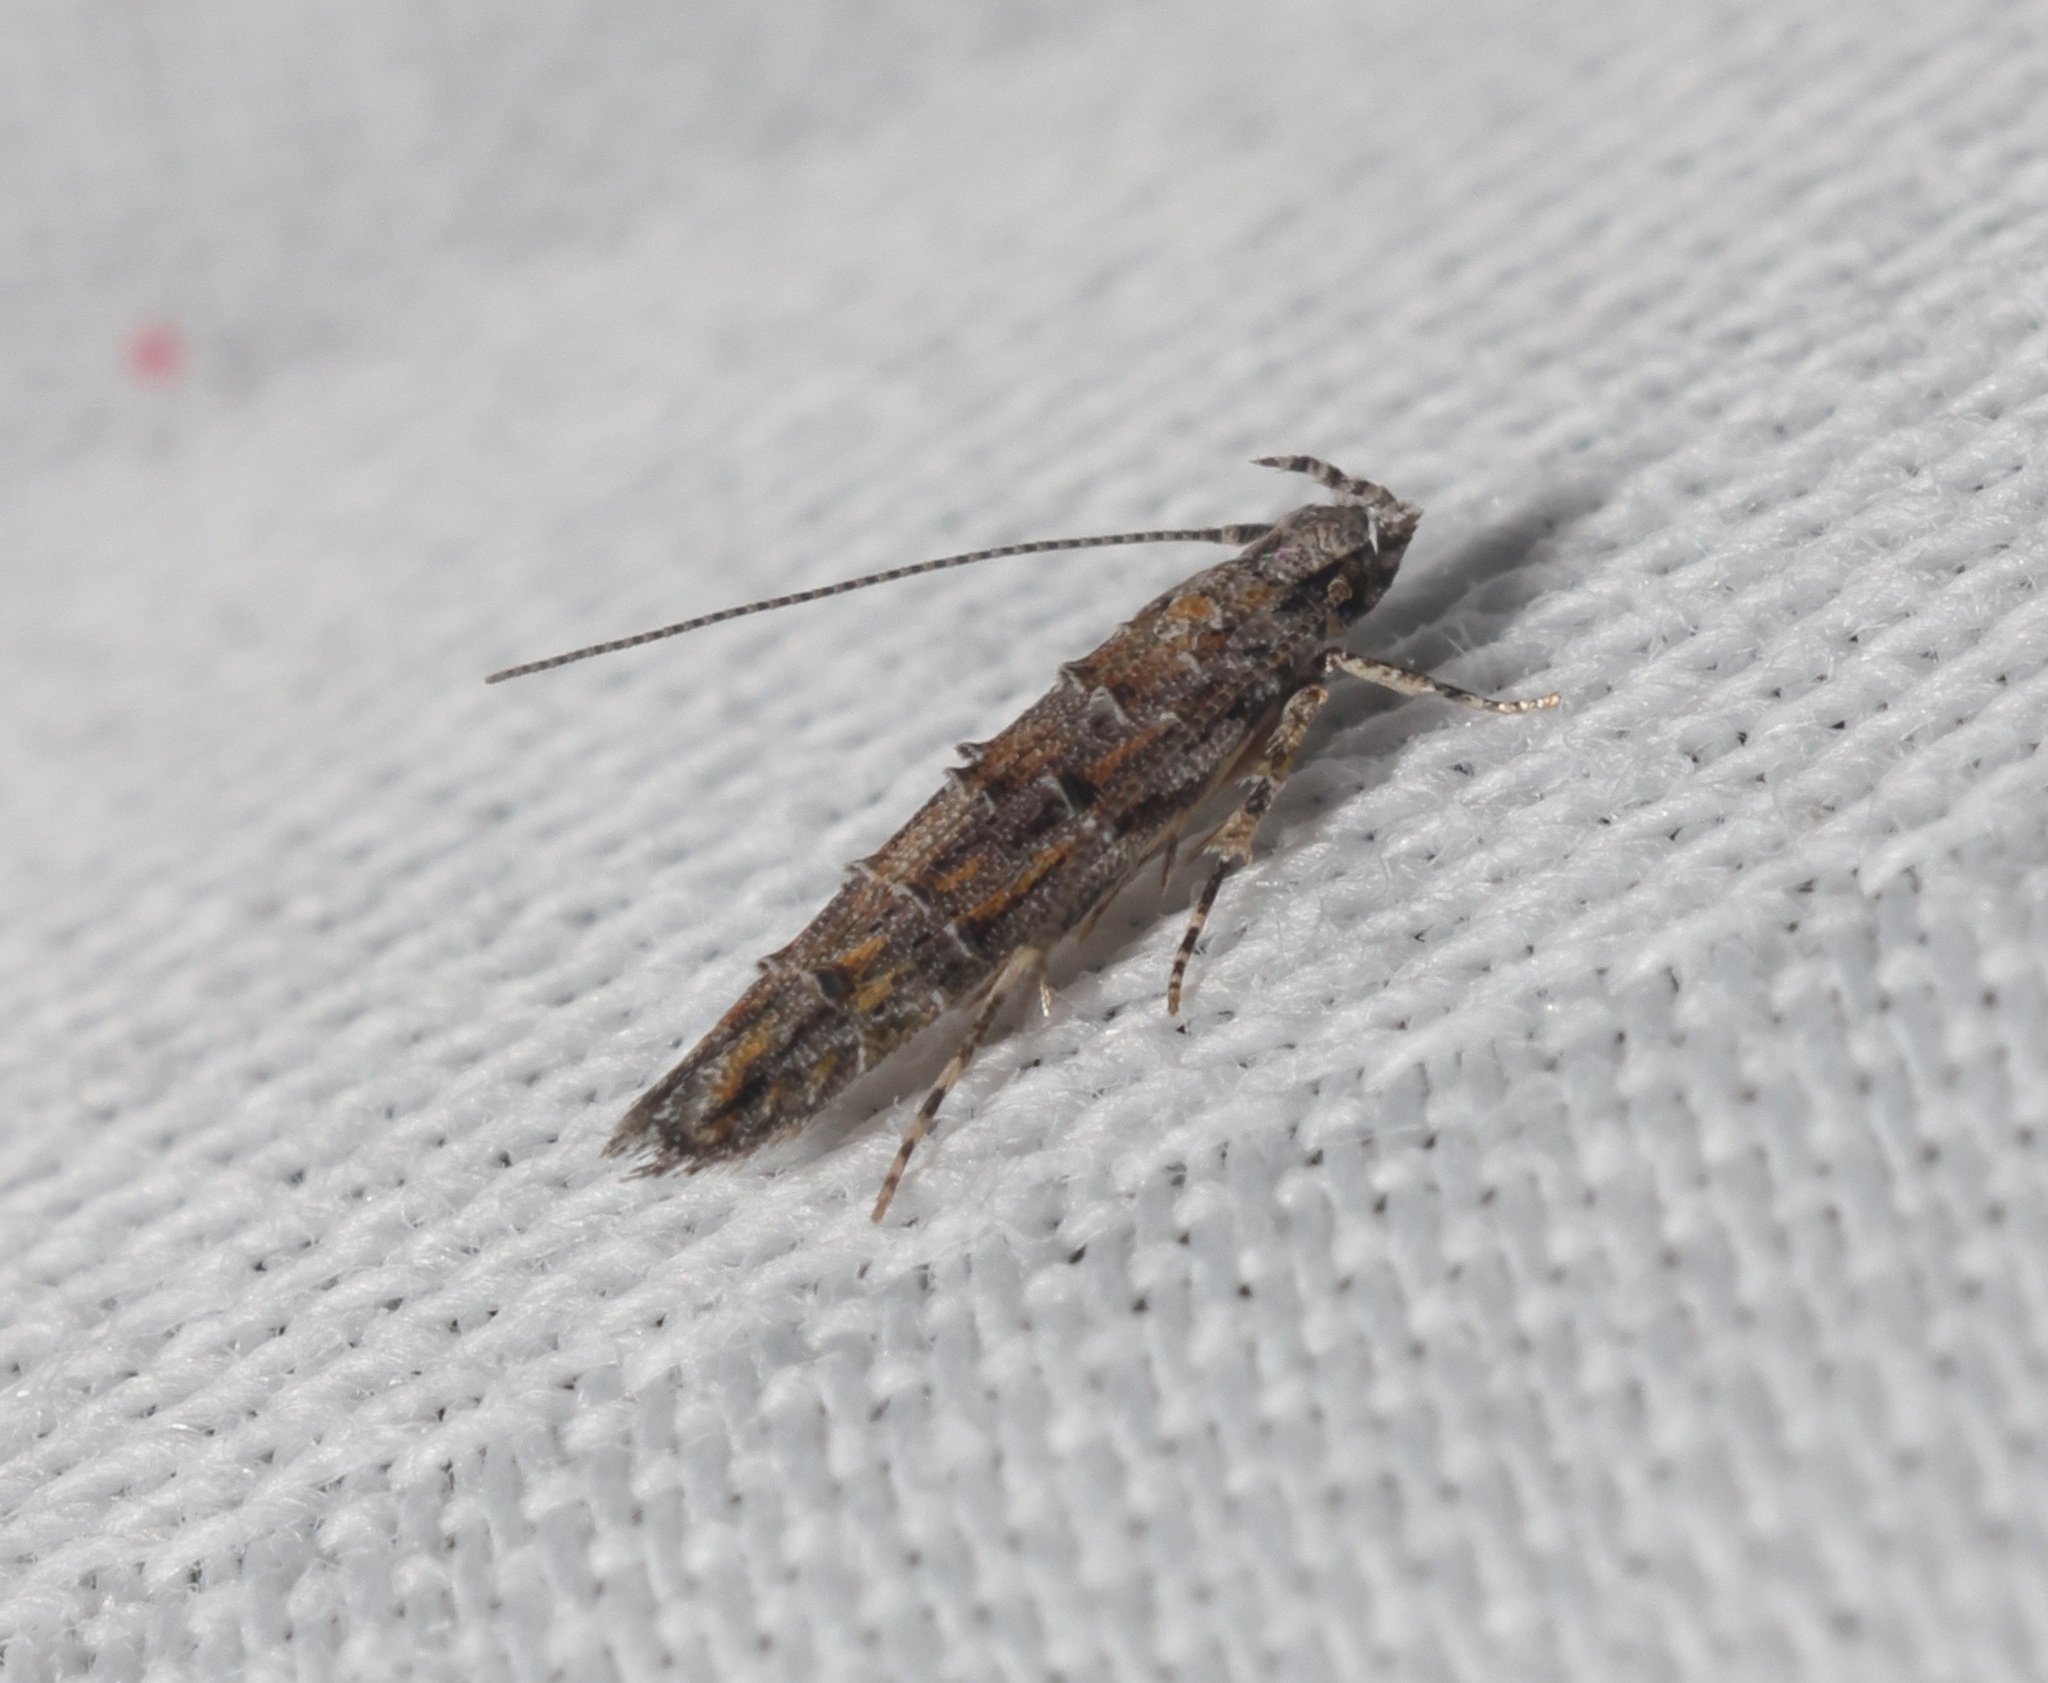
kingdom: Animalia
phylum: Arthropoda
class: Insecta
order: Lepidoptera
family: Yponomeutidae
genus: Metharmostis
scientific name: Metharmostis
